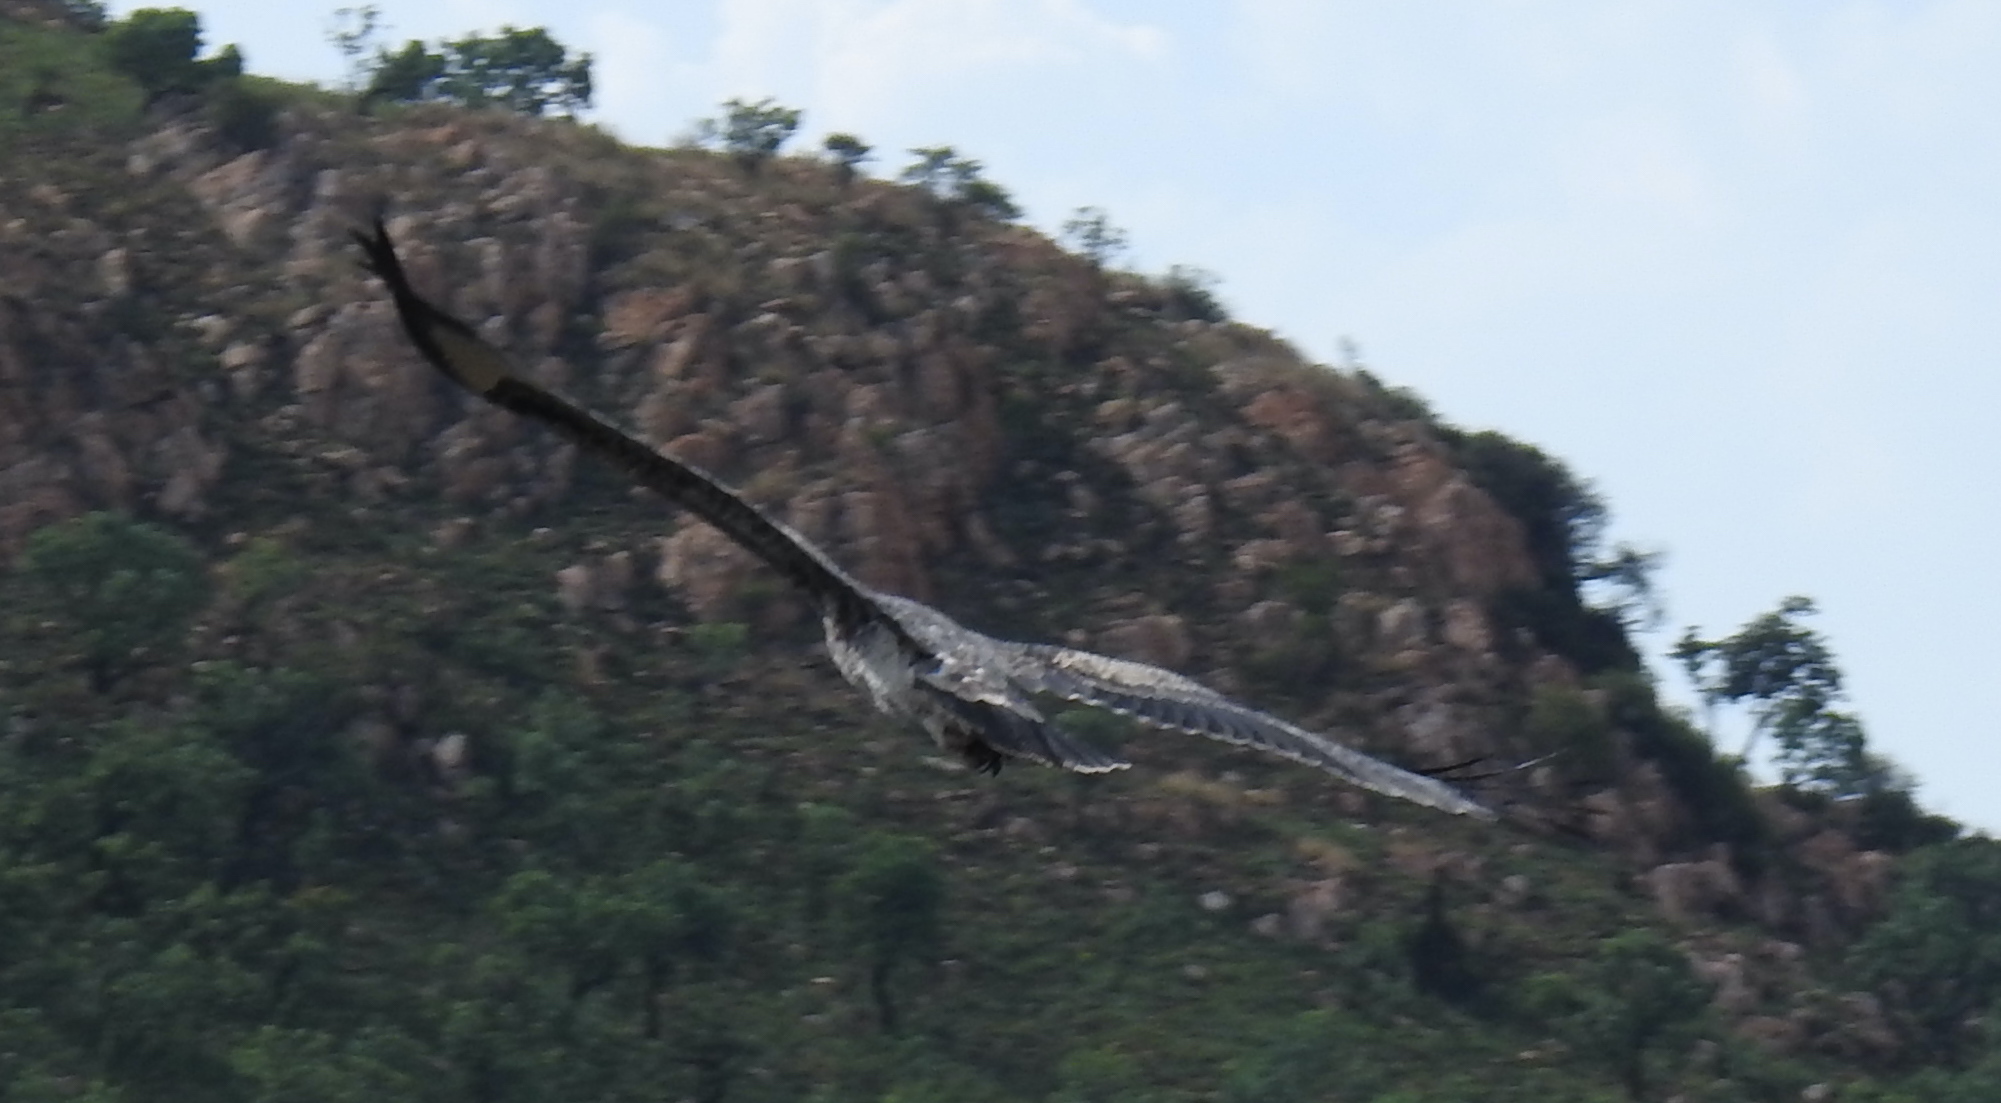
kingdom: Animalia
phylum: Chordata
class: Aves
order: Accipitriformes
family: Accipitridae
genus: Aquila
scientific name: Aquila verreauxii
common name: Verreaux's eagle
